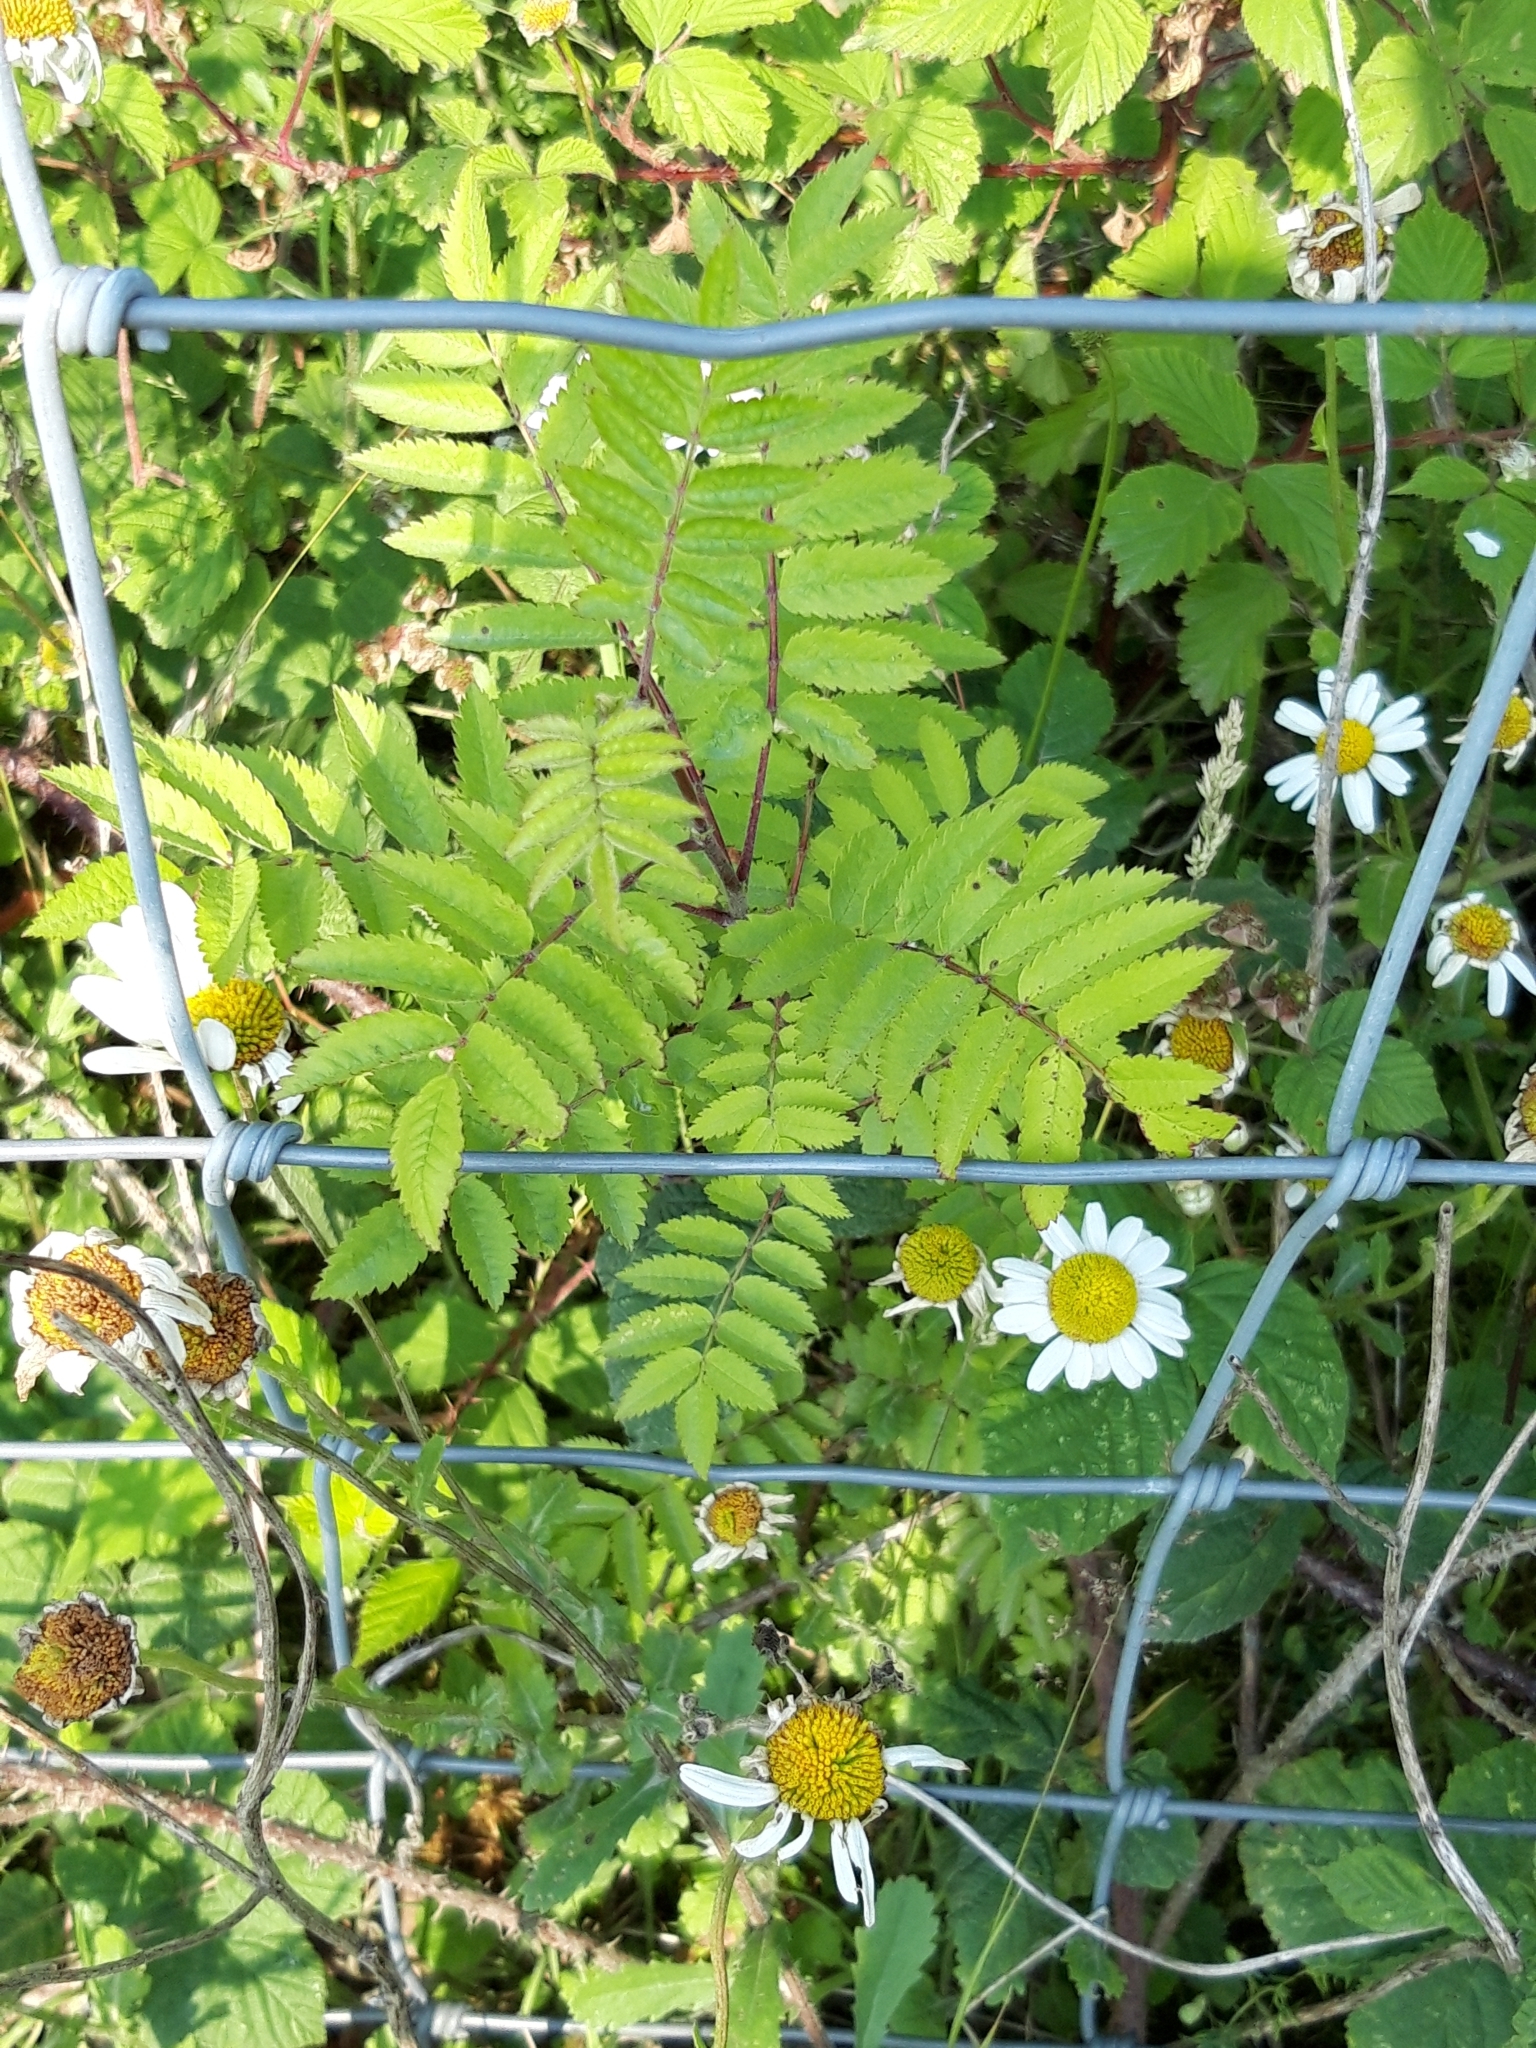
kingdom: Plantae
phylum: Tracheophyta
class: Magnoliopsida
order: Rosales
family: Rosaceae
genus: Sorbus
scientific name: Sorbus aucuparia
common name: Rowan
